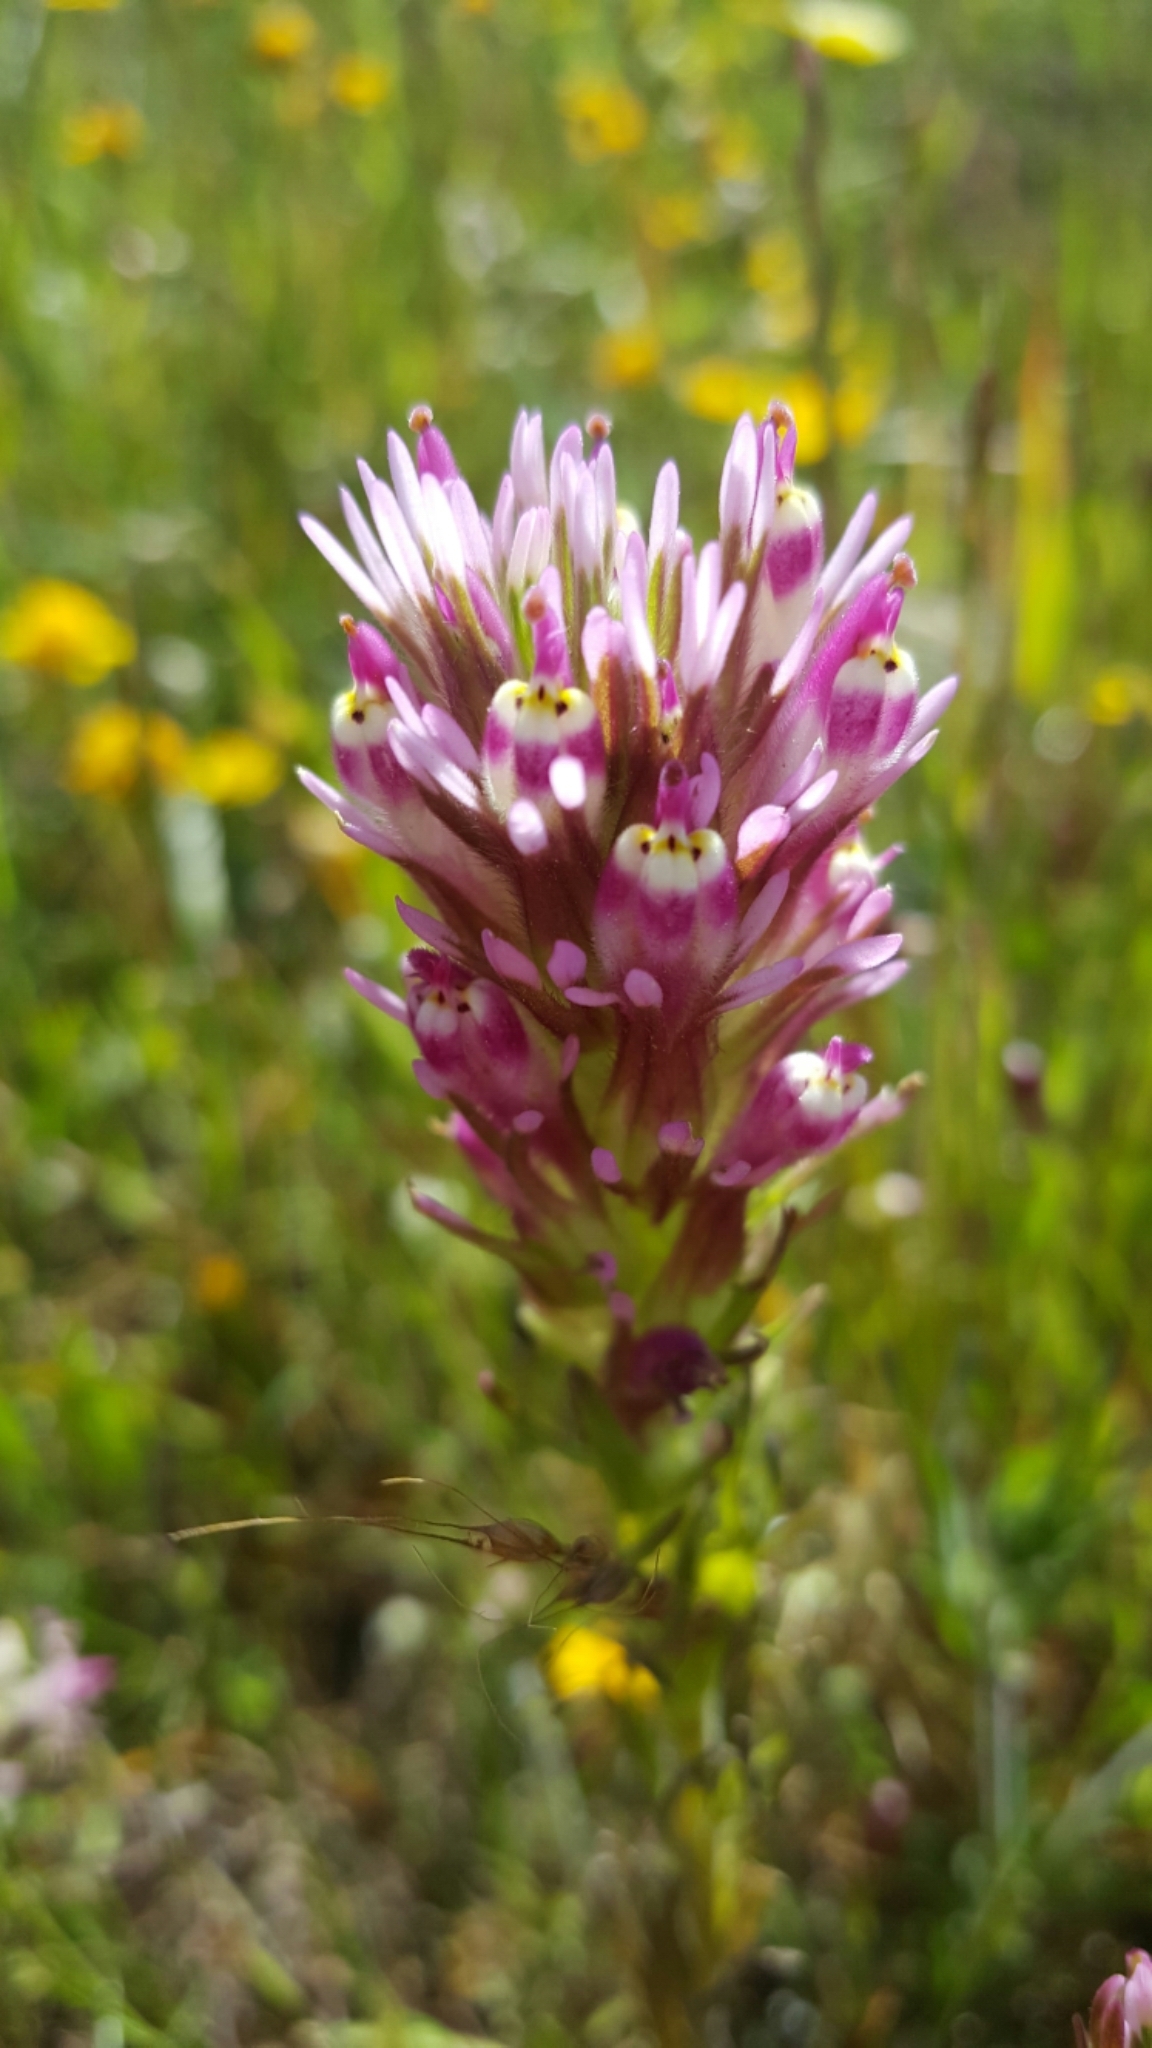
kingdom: Plantae
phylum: Tracheophyta
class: Magnoliopsida
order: Lamiales
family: Orobanchaceae
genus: Castilleja
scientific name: Castilleja densiflora
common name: Dense-flower indian paintbrush
